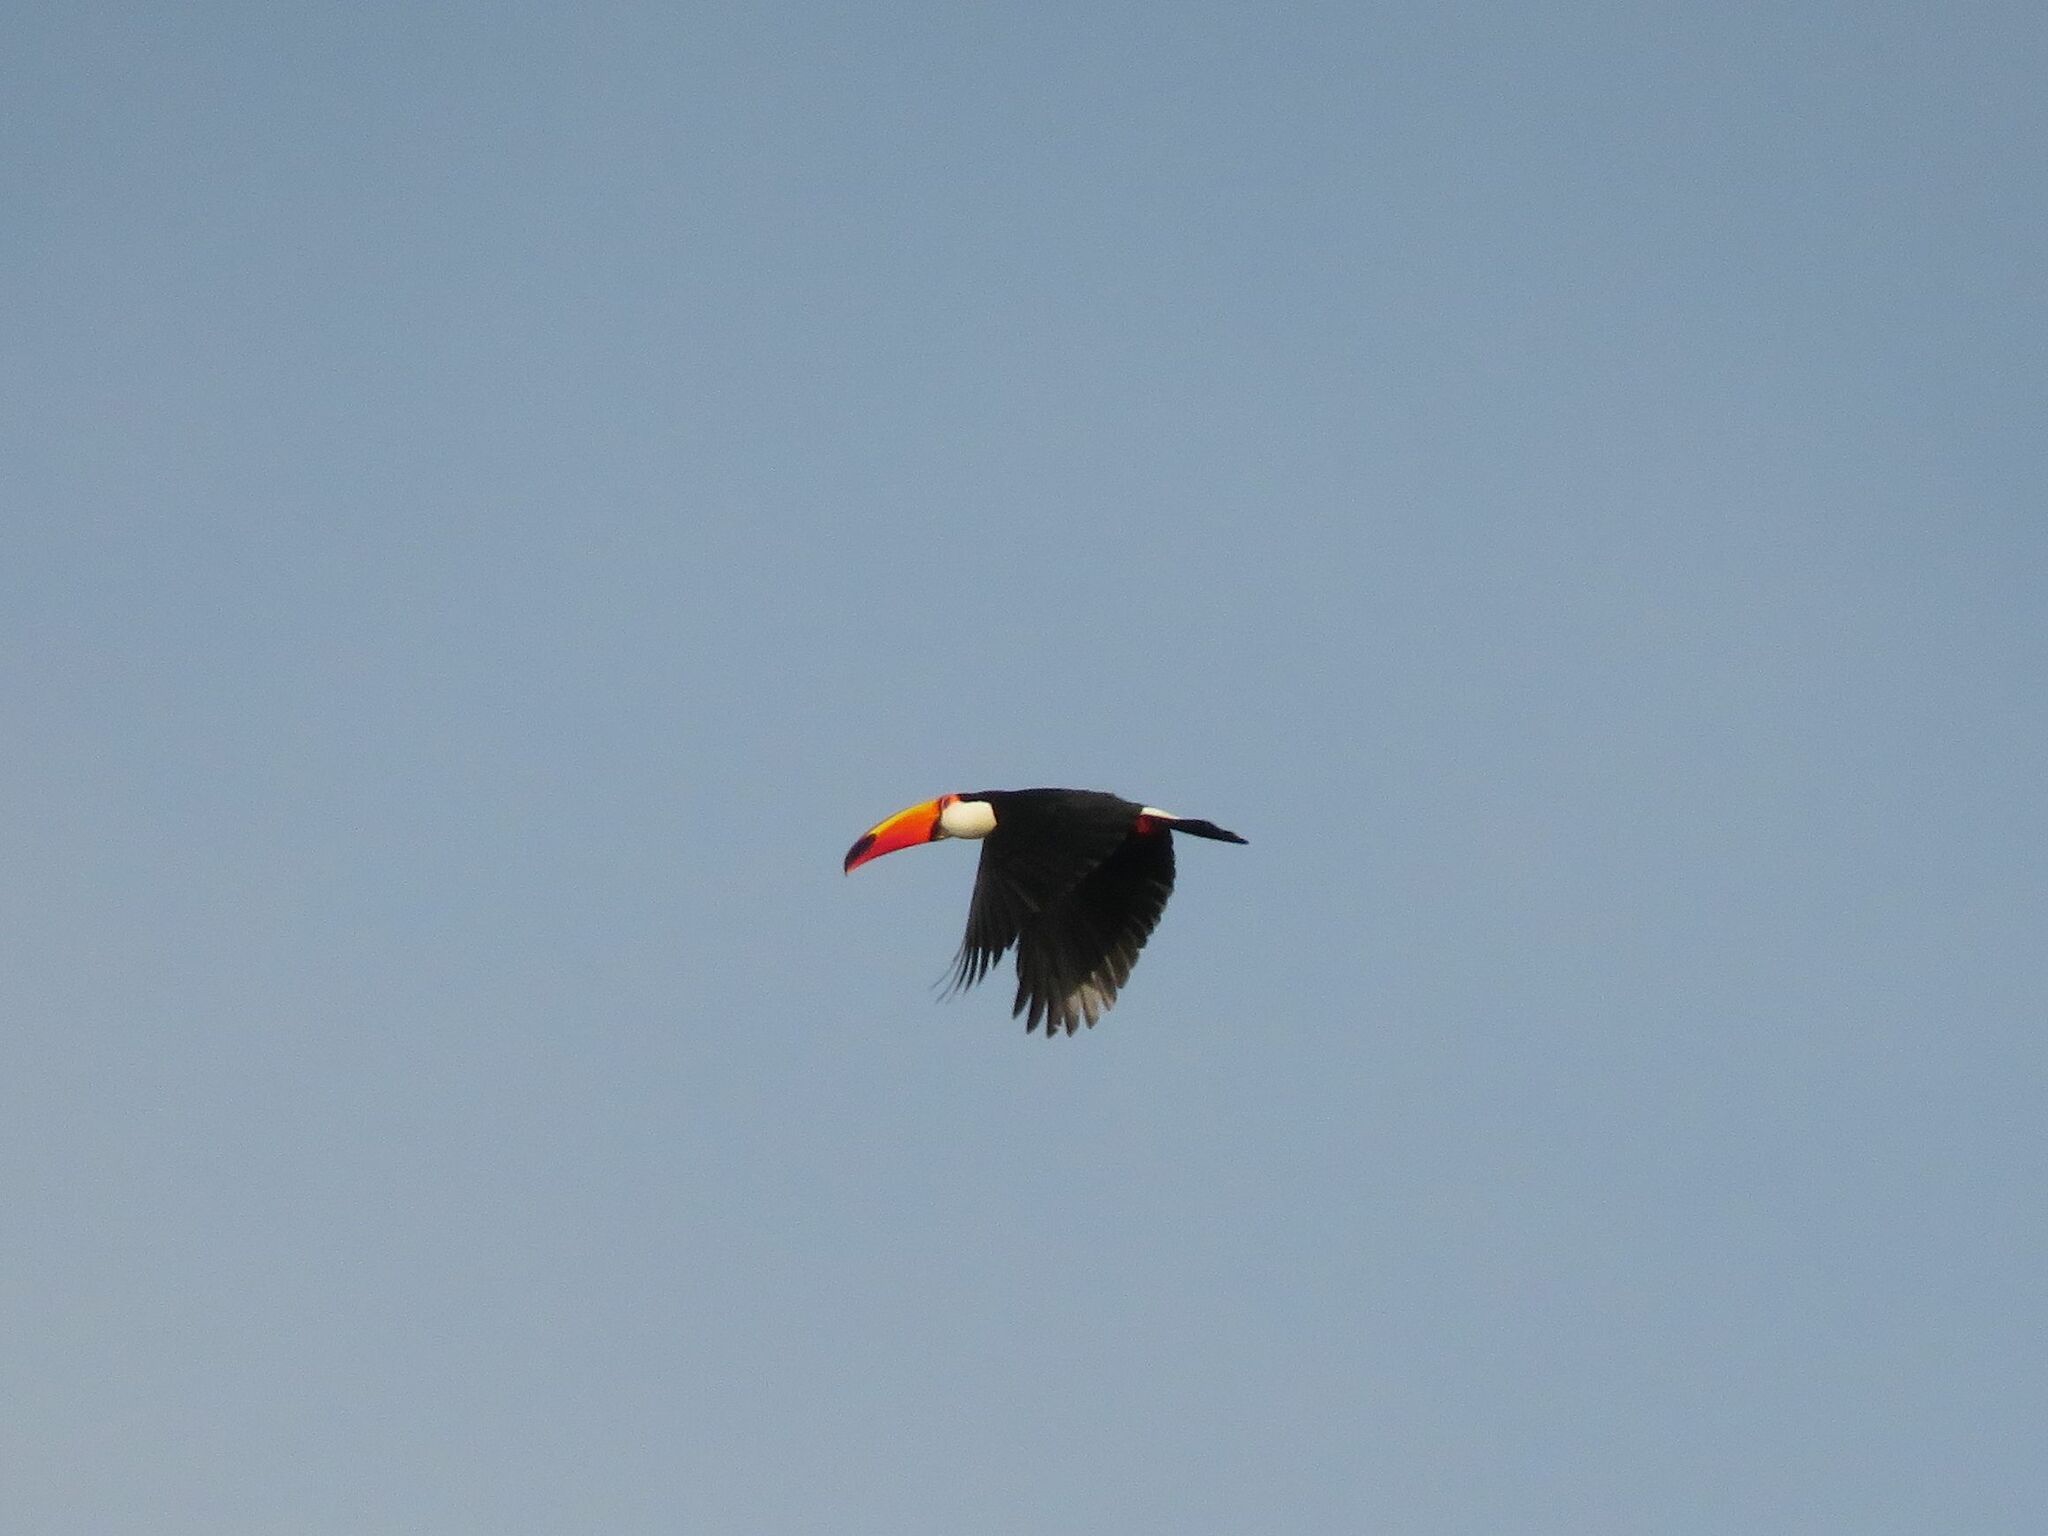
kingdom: Animalia
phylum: Chordata
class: Aves
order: Piciformes
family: Ramphastidae
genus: Ramphastos
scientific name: Ramphastos toco
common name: Toco toucan
